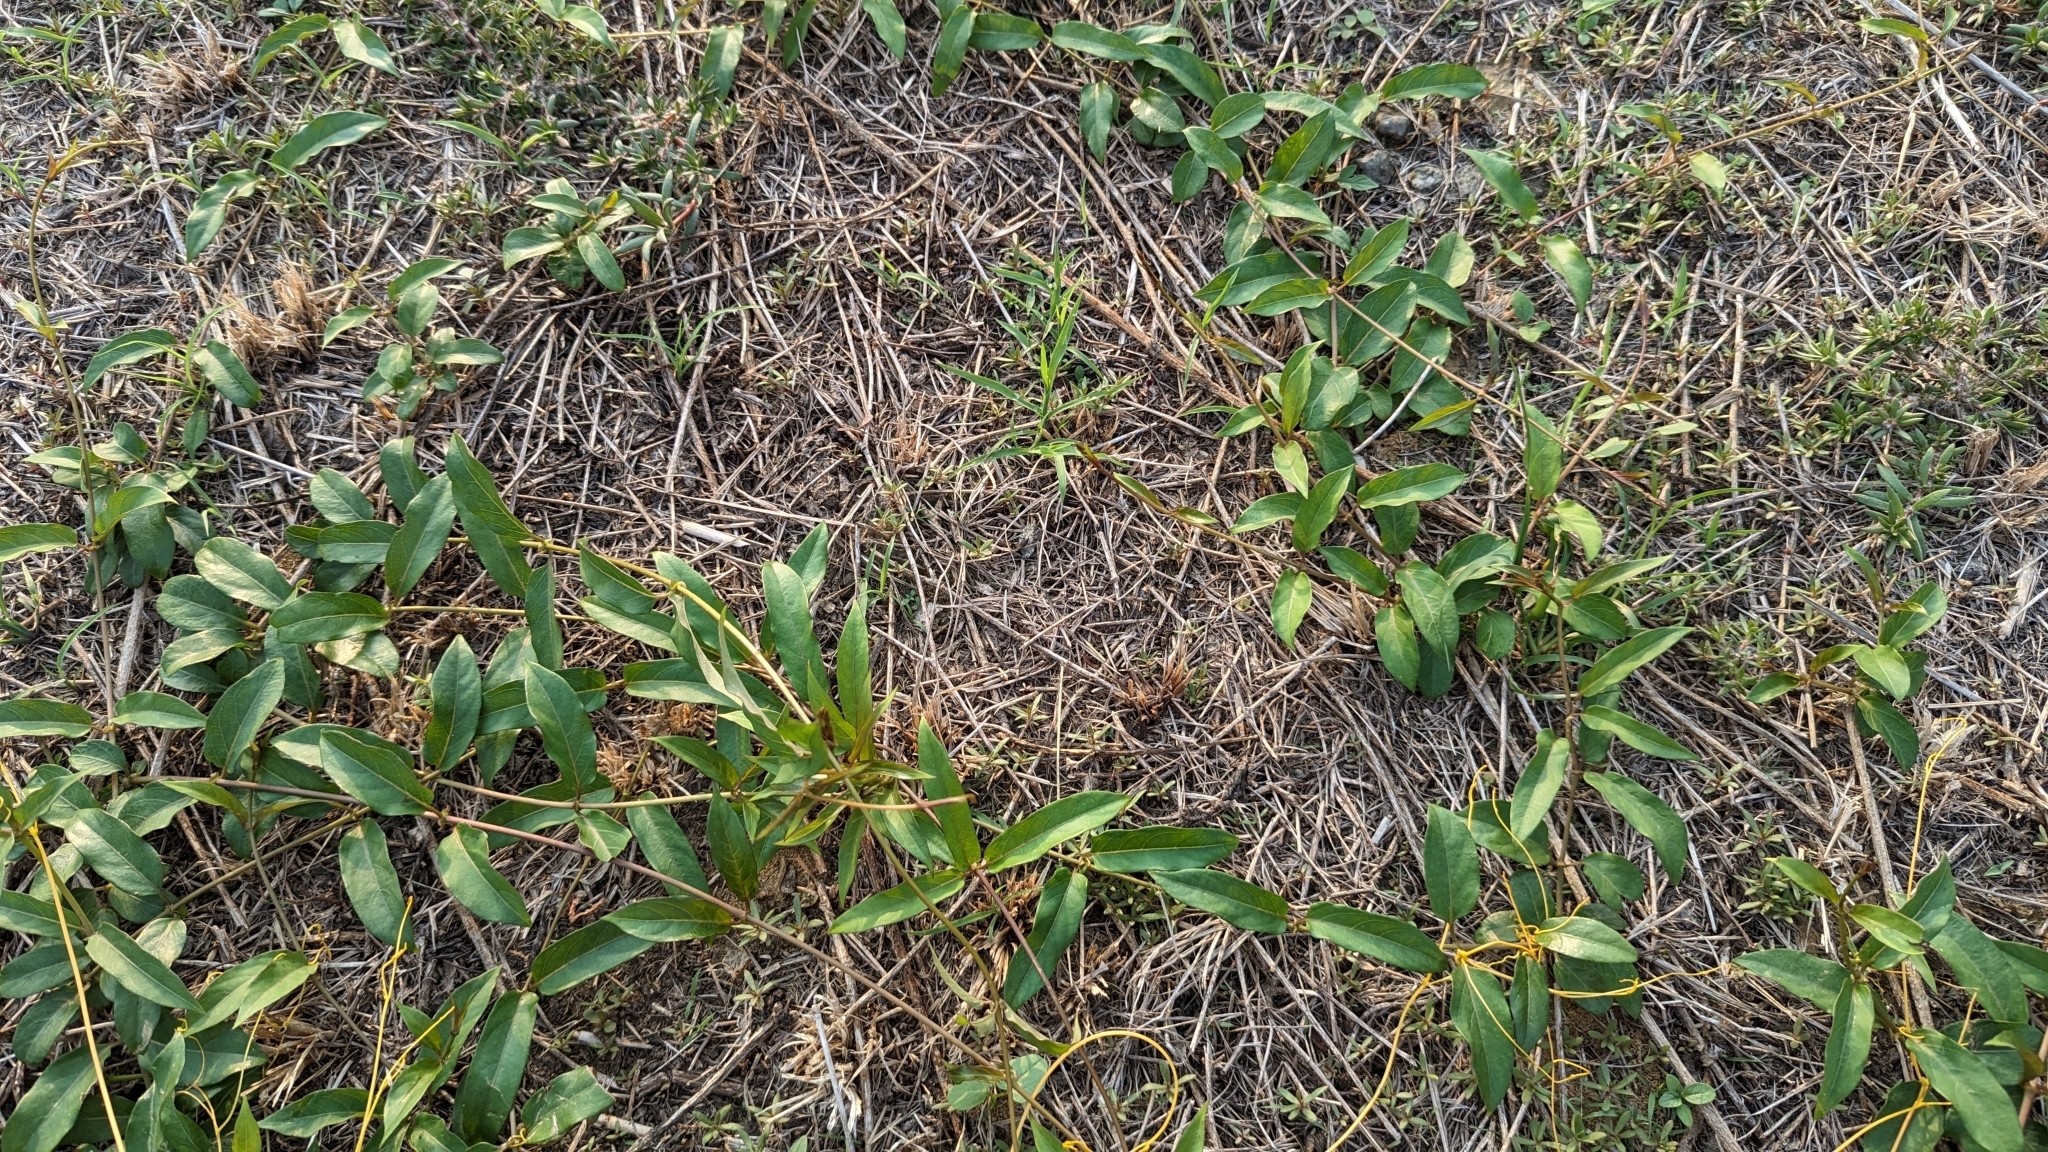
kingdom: Plantae
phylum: Tracheophyta
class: Magnoliopsida
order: Gentianales
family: Rubiaceae
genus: Paederia
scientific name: Paederia foetida
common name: Stinkvine
